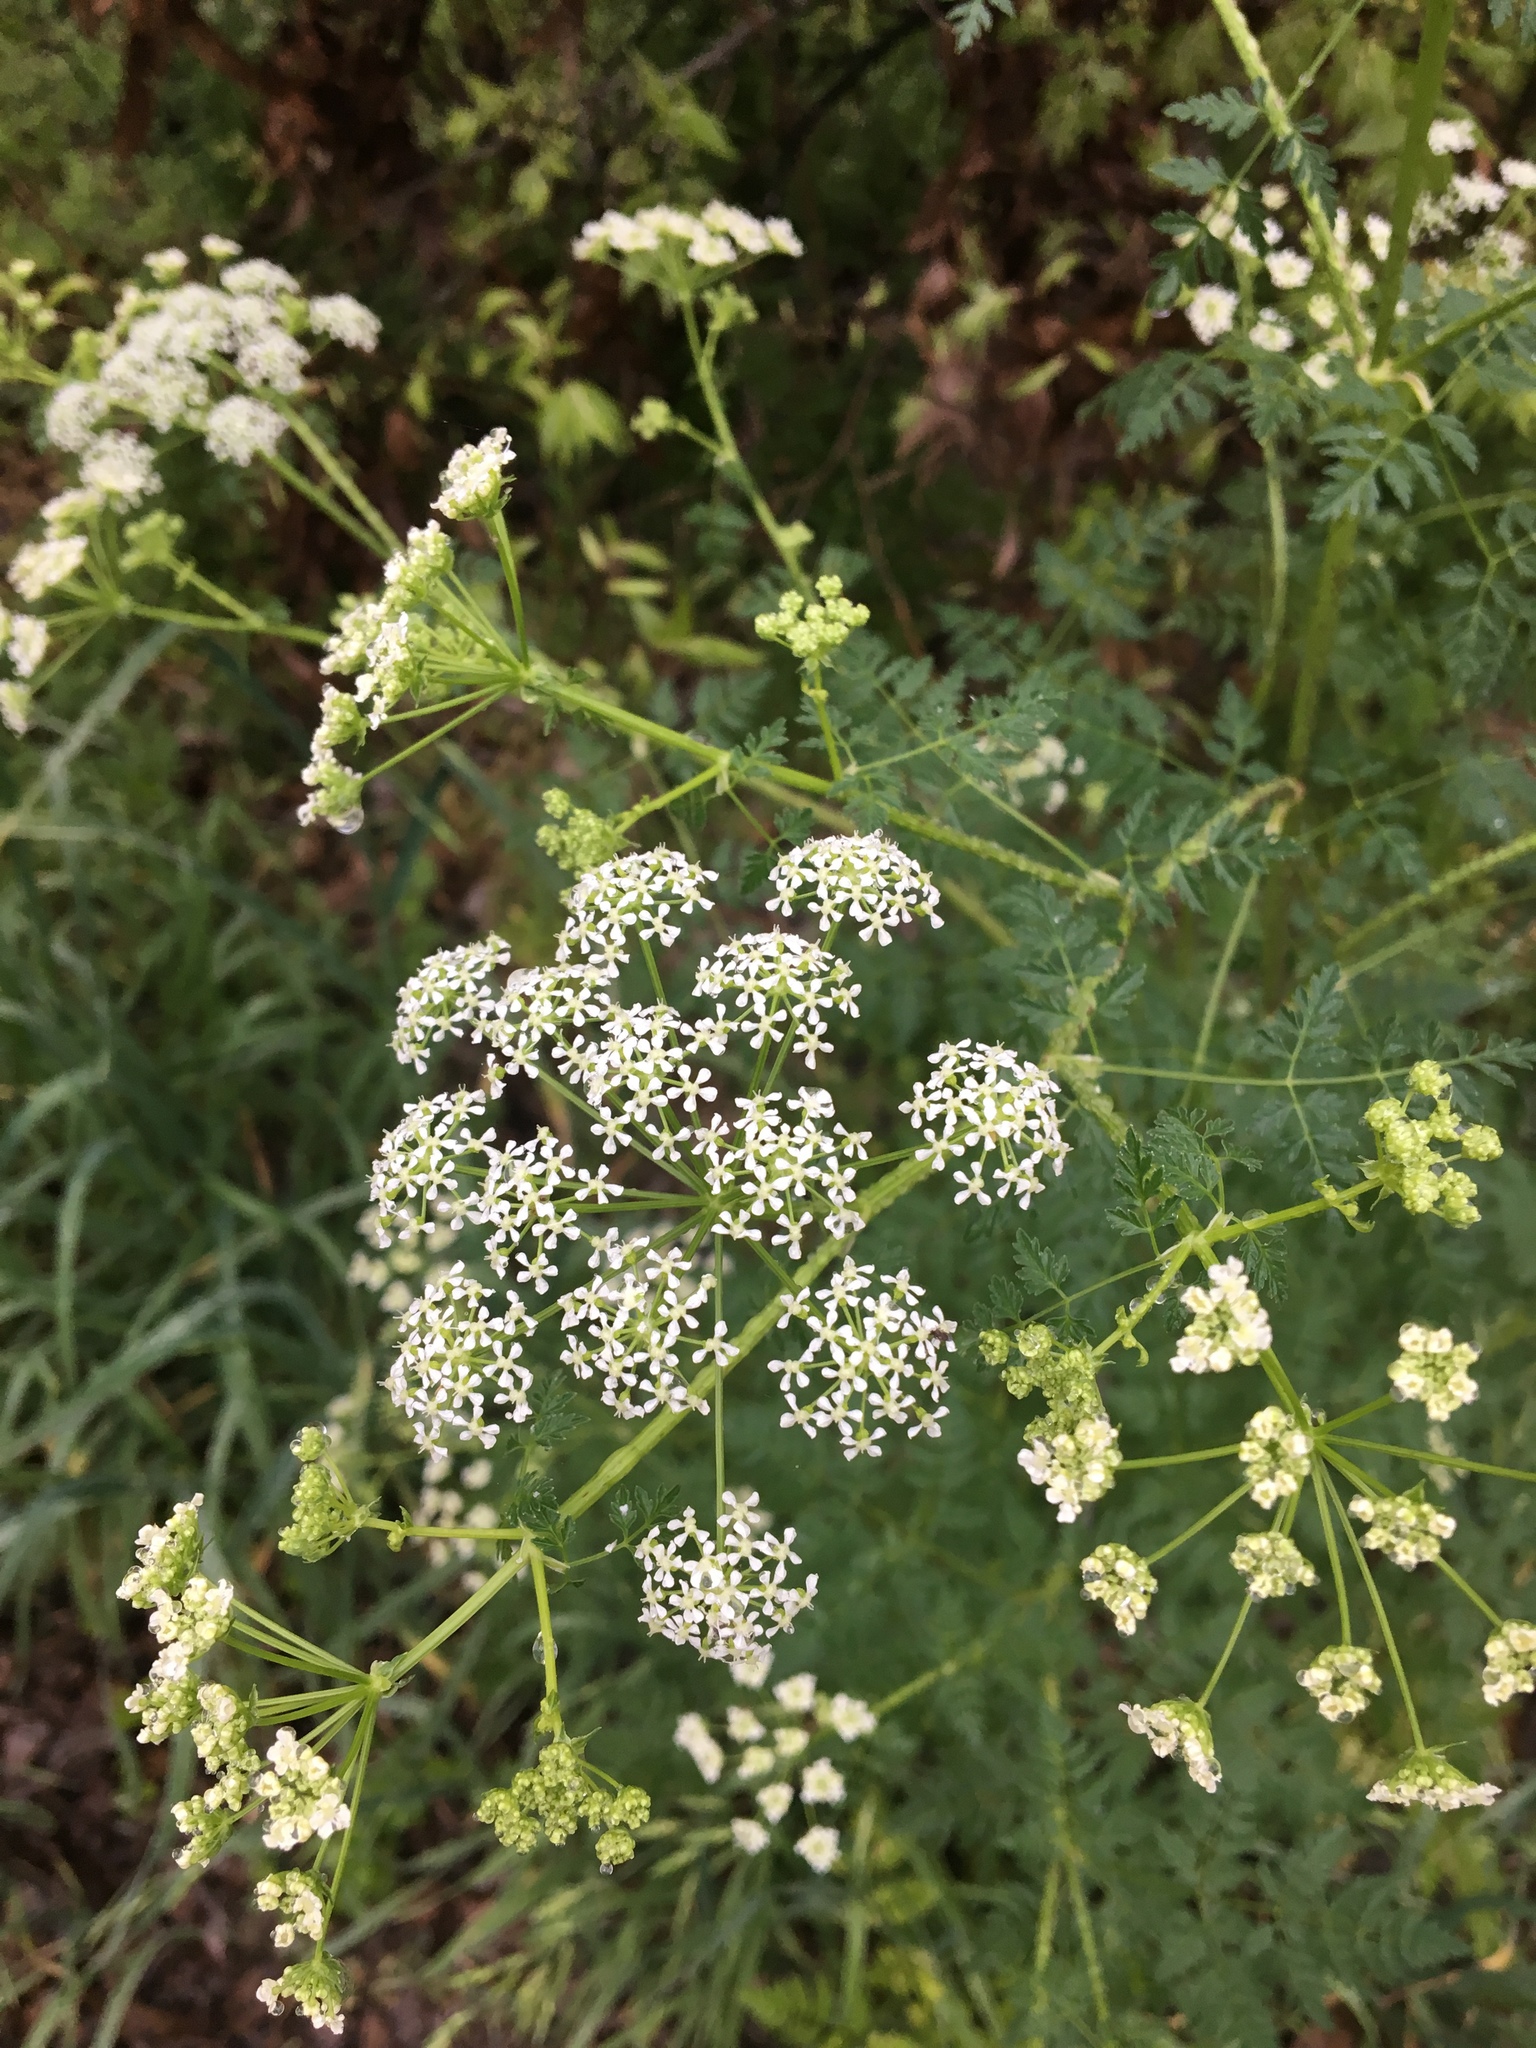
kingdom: Plantae
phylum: Tracheophyta
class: Magnoliopsida
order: Apiales
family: Apiaceae
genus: Conium
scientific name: Conium maculatum
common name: Hemlock
